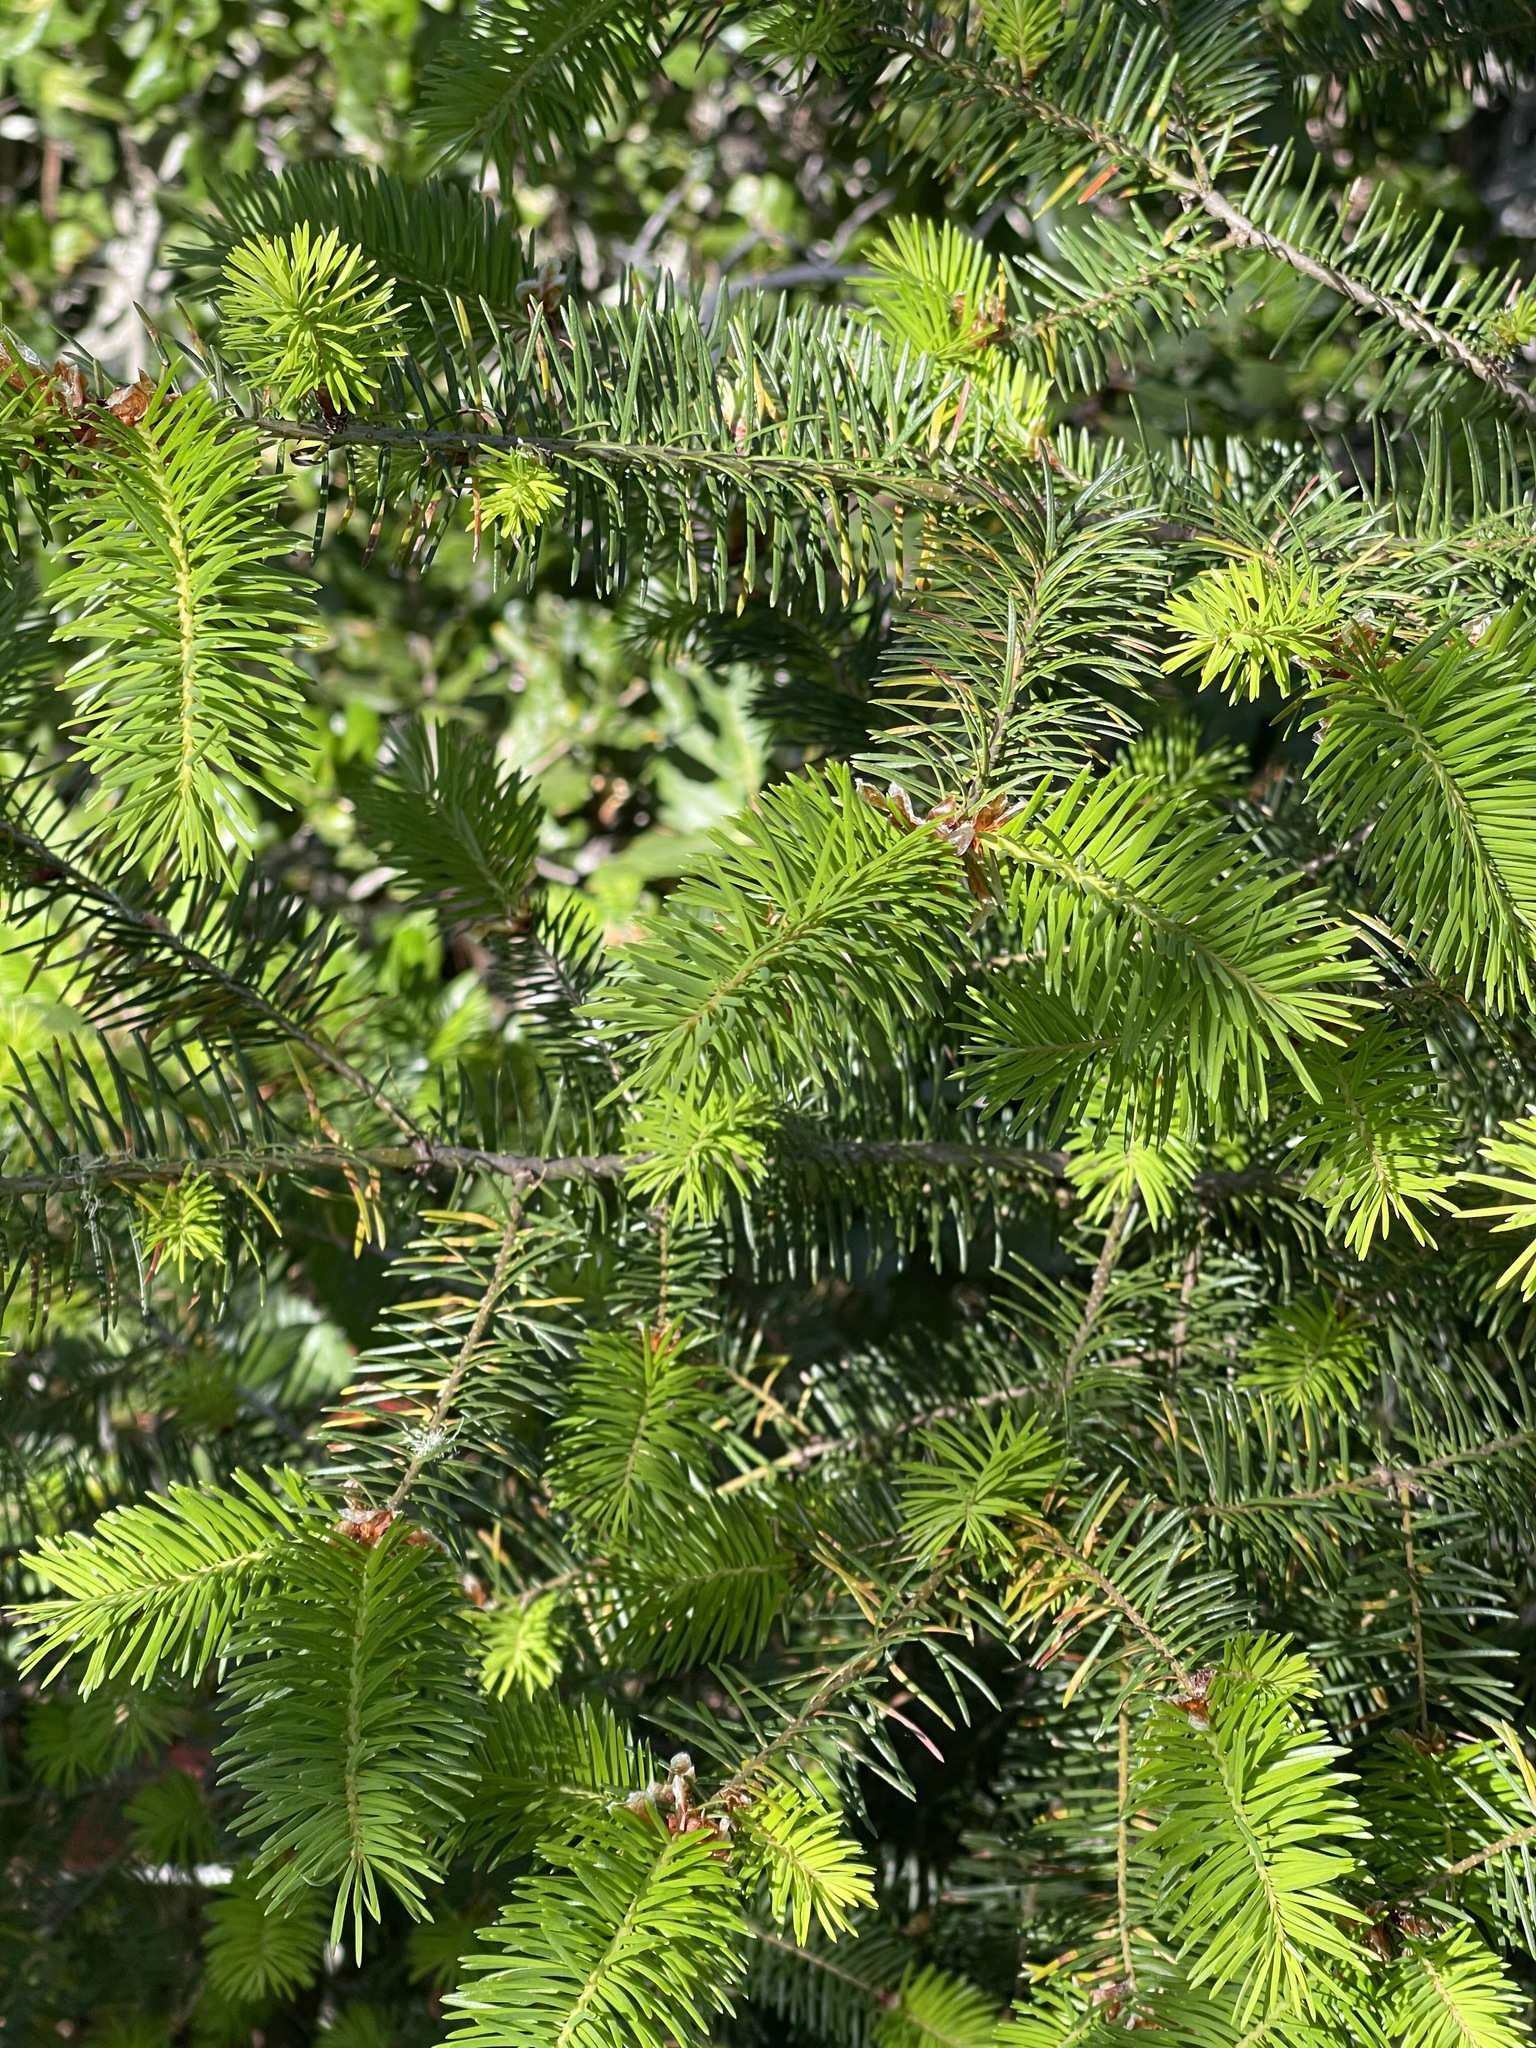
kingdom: Plantae
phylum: Tracheophyta
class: Pinopsida
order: Pinales
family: Pinaceae
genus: Pseudotsuga
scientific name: Pseudotsuga menziesii
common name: Douglas fir
